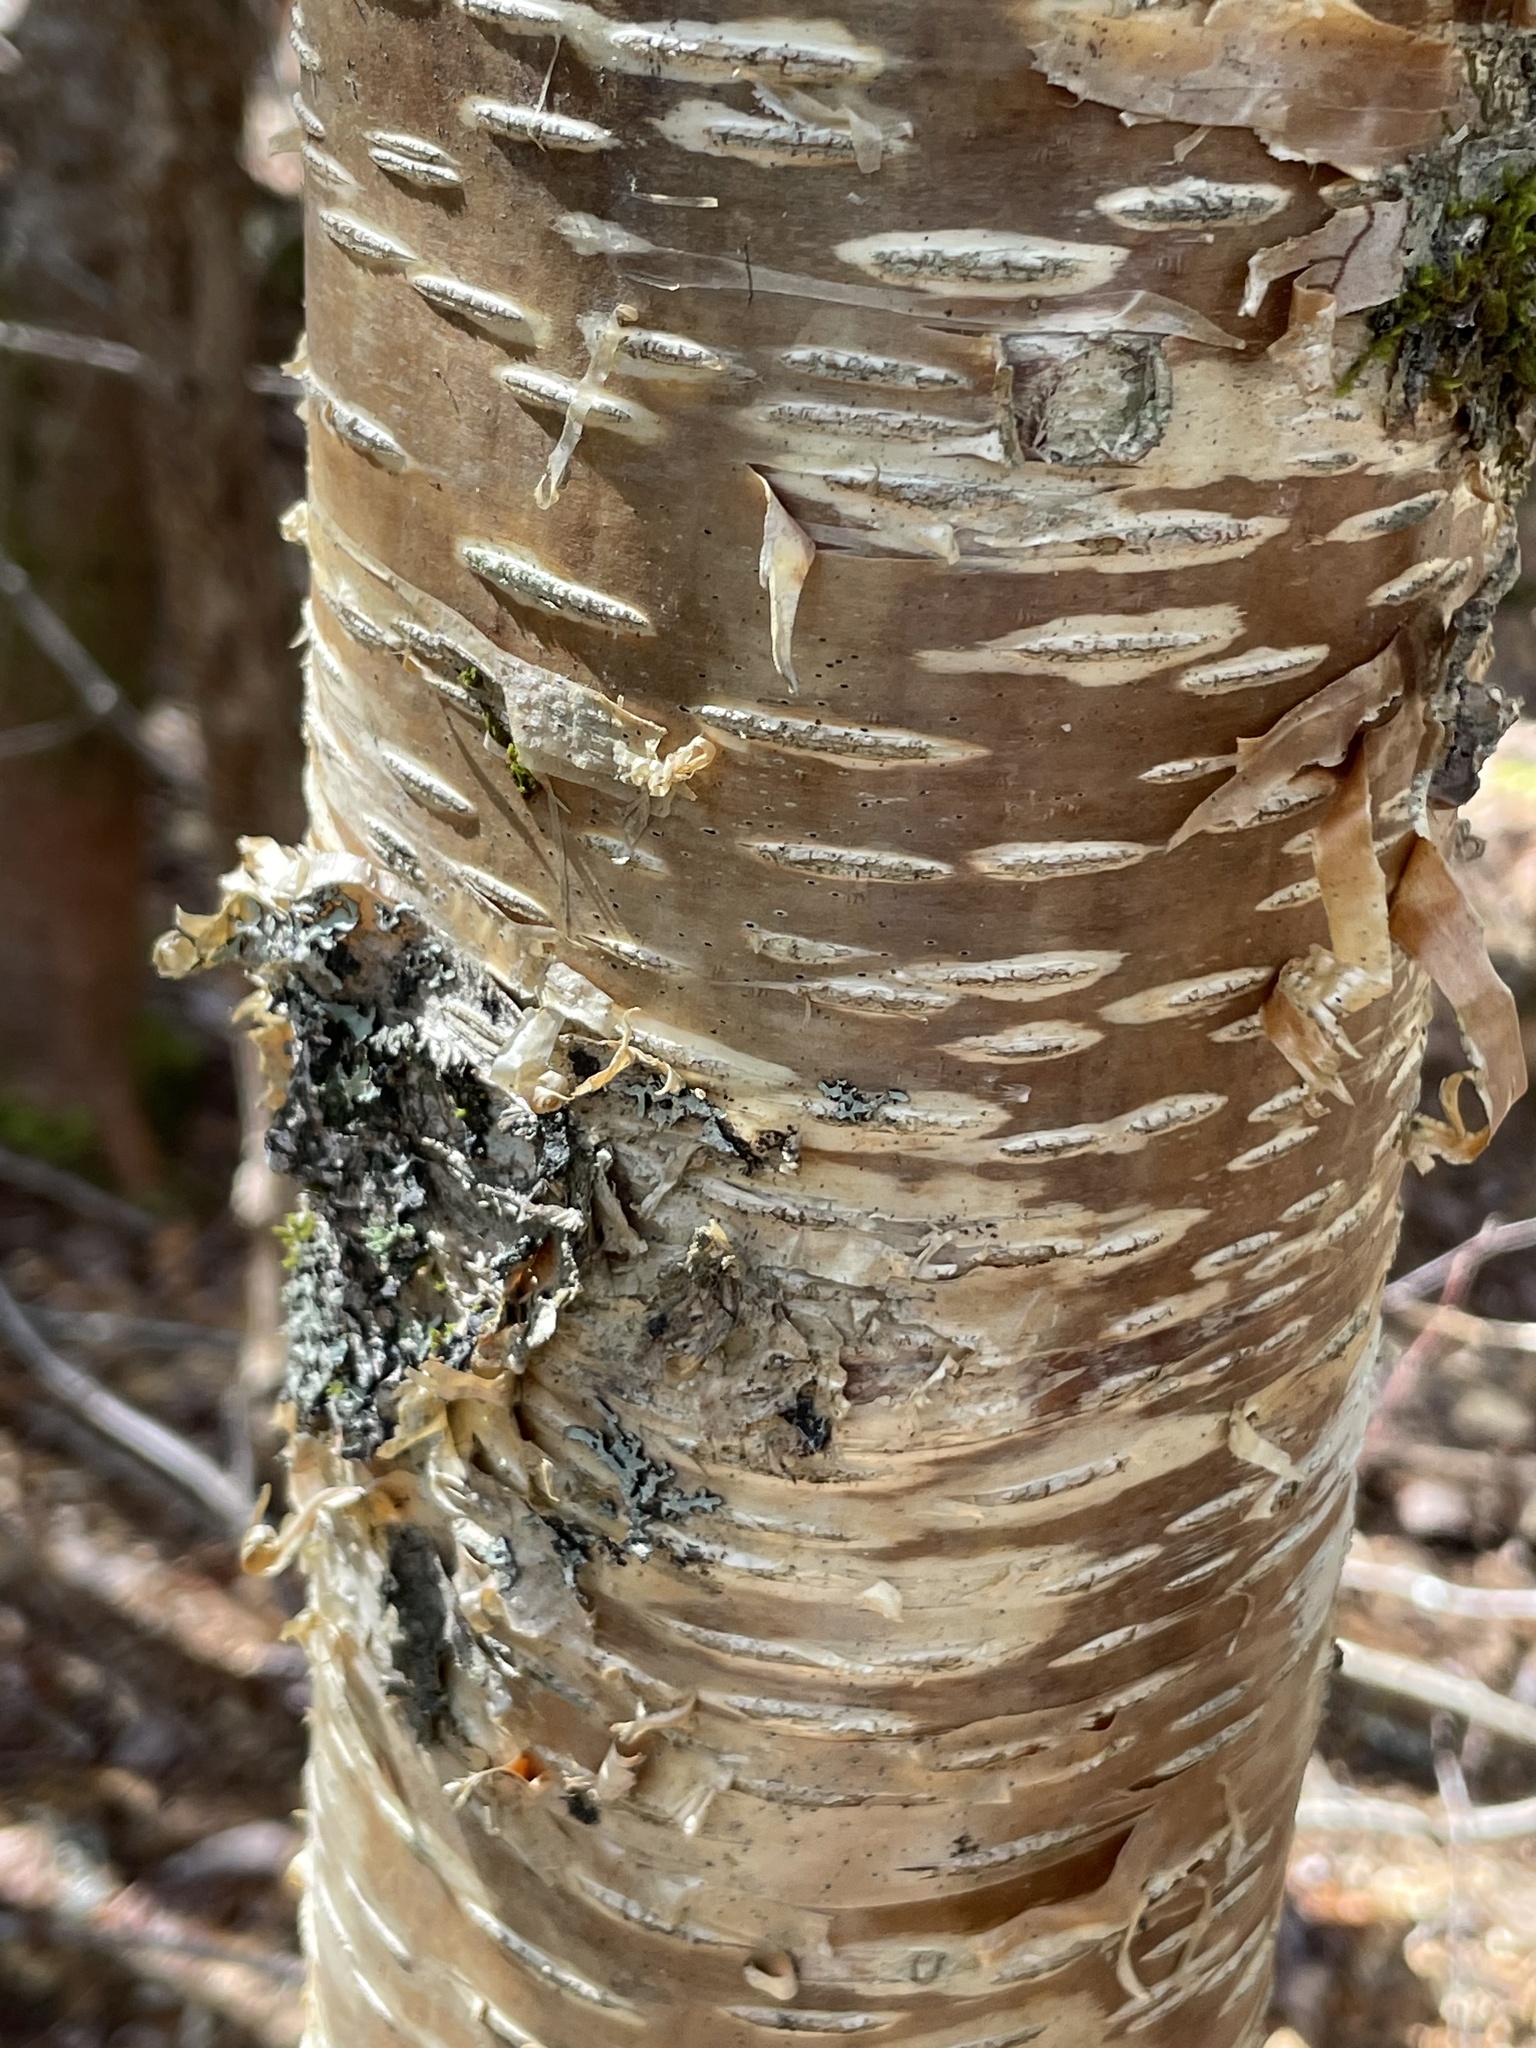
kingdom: Plantae
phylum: Tracheophyta
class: Magnoliopsida
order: Fagales
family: Betulaceae
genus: Betula
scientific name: Betula alleghaniensis
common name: Yellow birch
